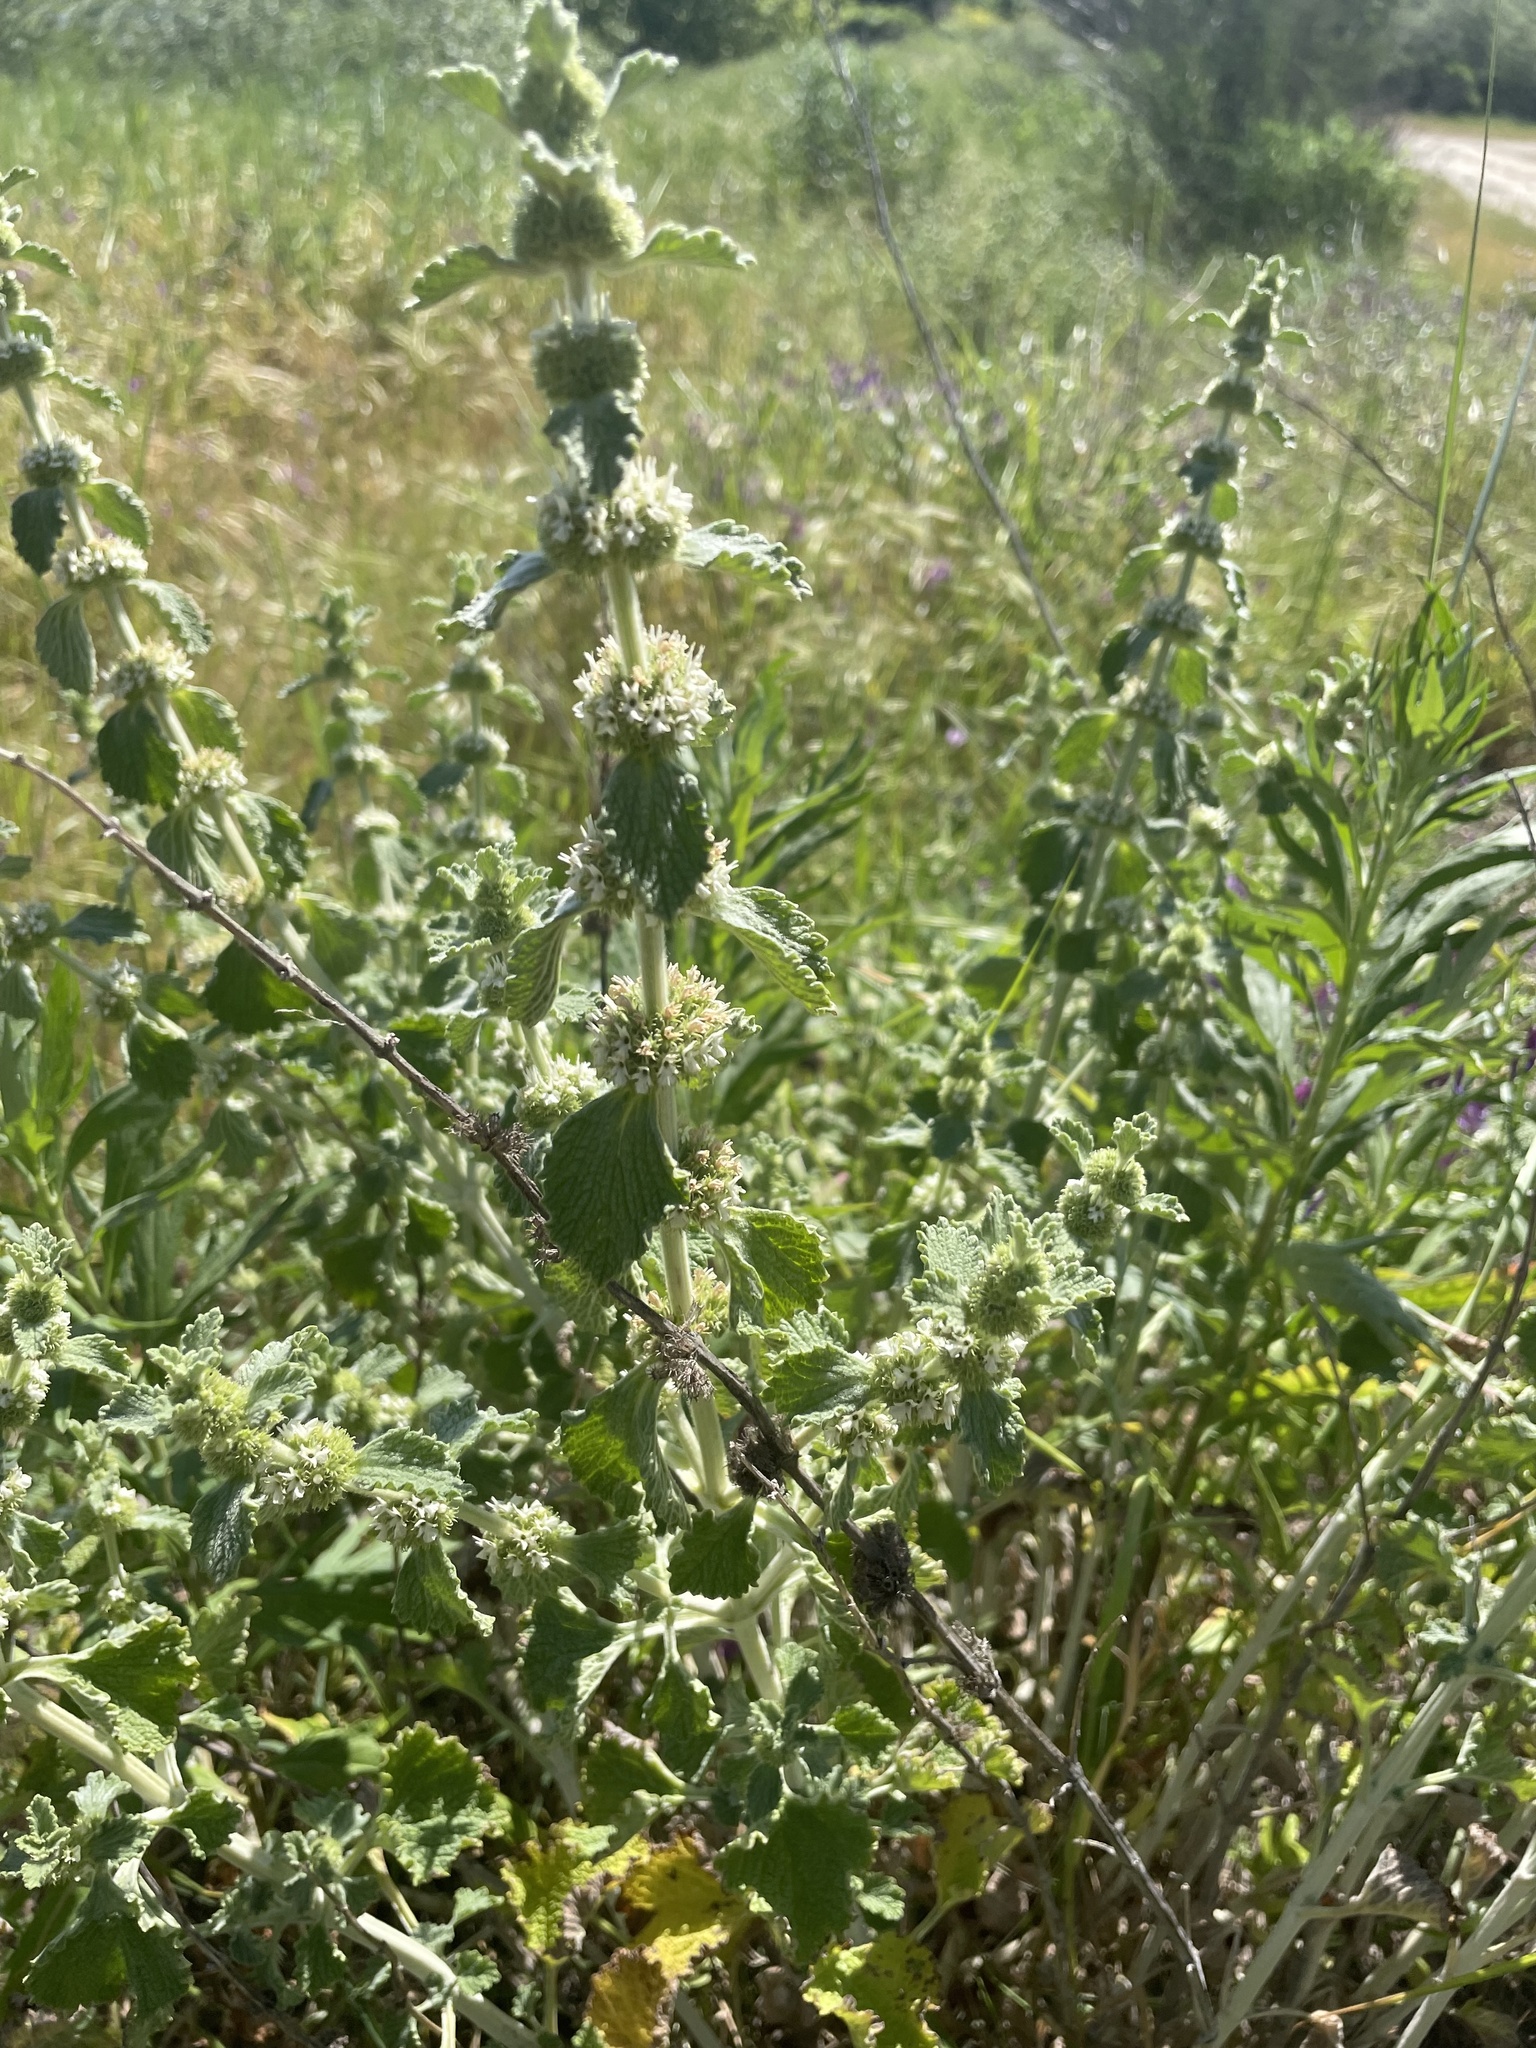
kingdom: Plantae
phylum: Tracheophyta
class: Magnoliopsida
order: Lamiales
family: Lamiaceae
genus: Marrubium
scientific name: Marrubium vulgare
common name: Horehound
